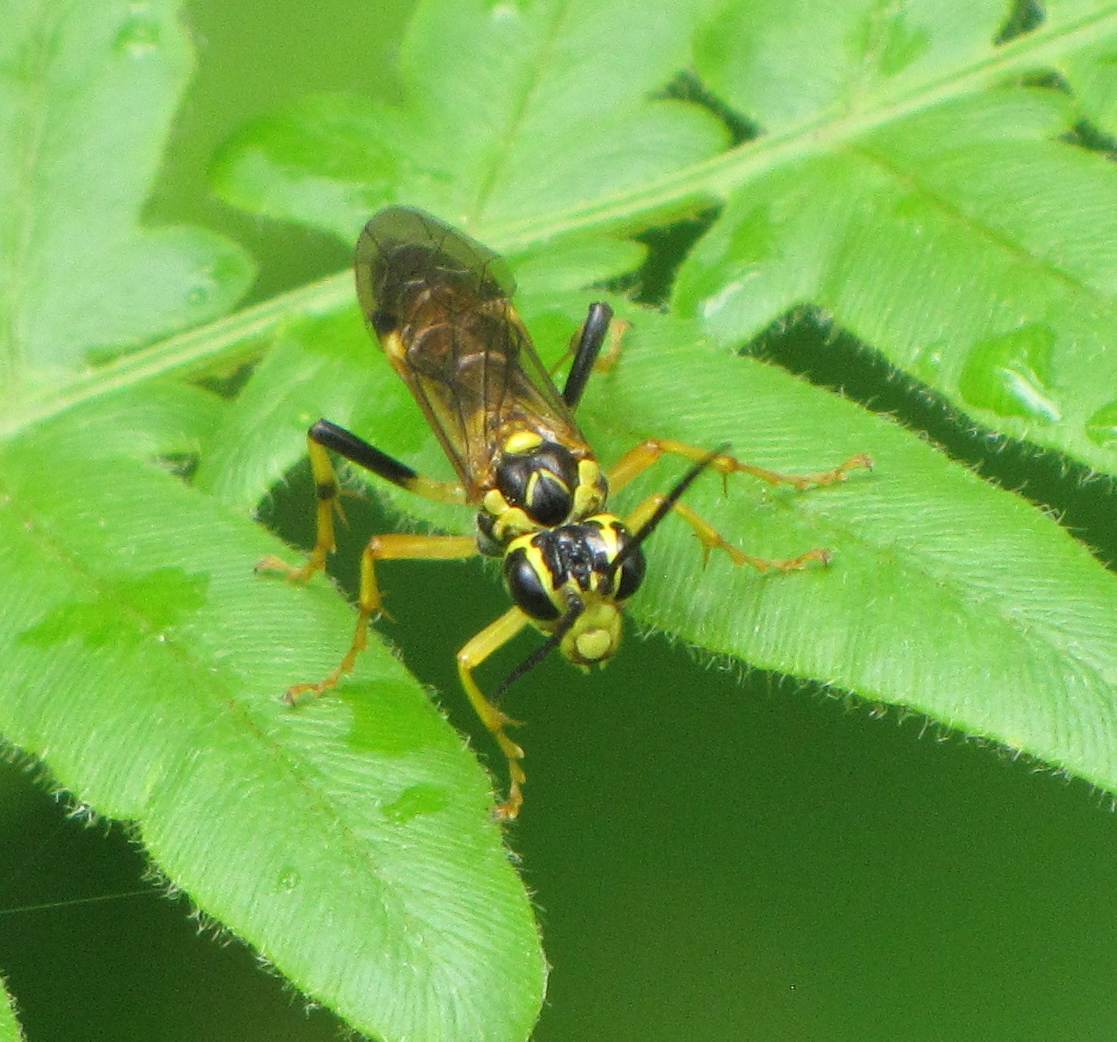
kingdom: Animalia
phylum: Arthropoda
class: Insecta
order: Hymenoptera
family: Tenthredinidae
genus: Tenthredo
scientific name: Tenthredo verticalis
